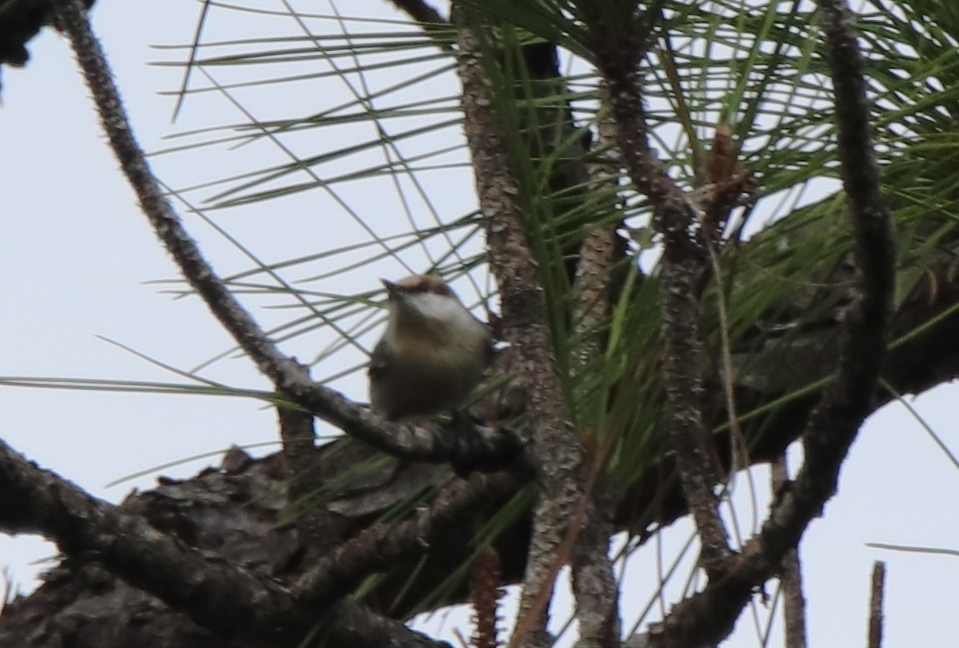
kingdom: Animalia
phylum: Chordata
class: Aves
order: Passeriformes
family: Sittidae
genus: Sitta
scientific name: Sitta pusilla
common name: Brown-headed nuthatch
